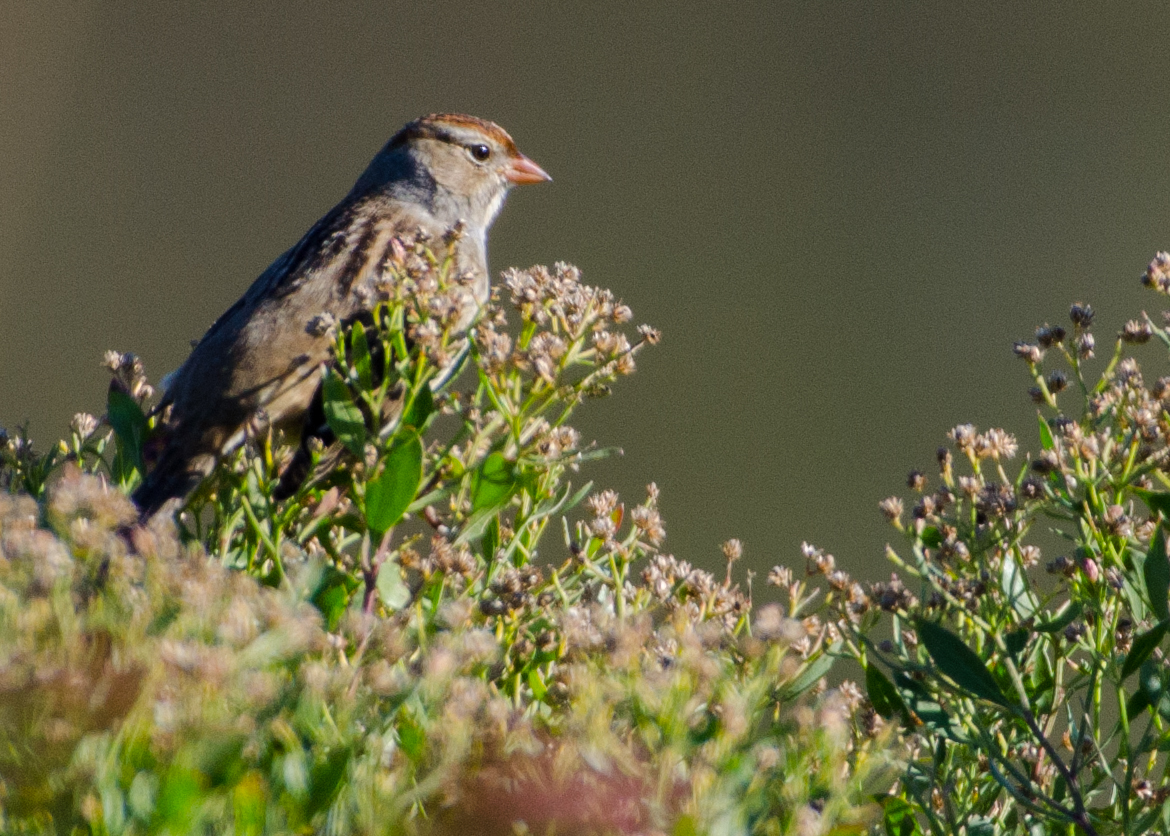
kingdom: Animalia
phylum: Chordata
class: Aves
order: Passeriformes
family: Passerellidae
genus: Zonotrichia
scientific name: Zonotrichia leucophrys
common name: White-crowned sparrow
